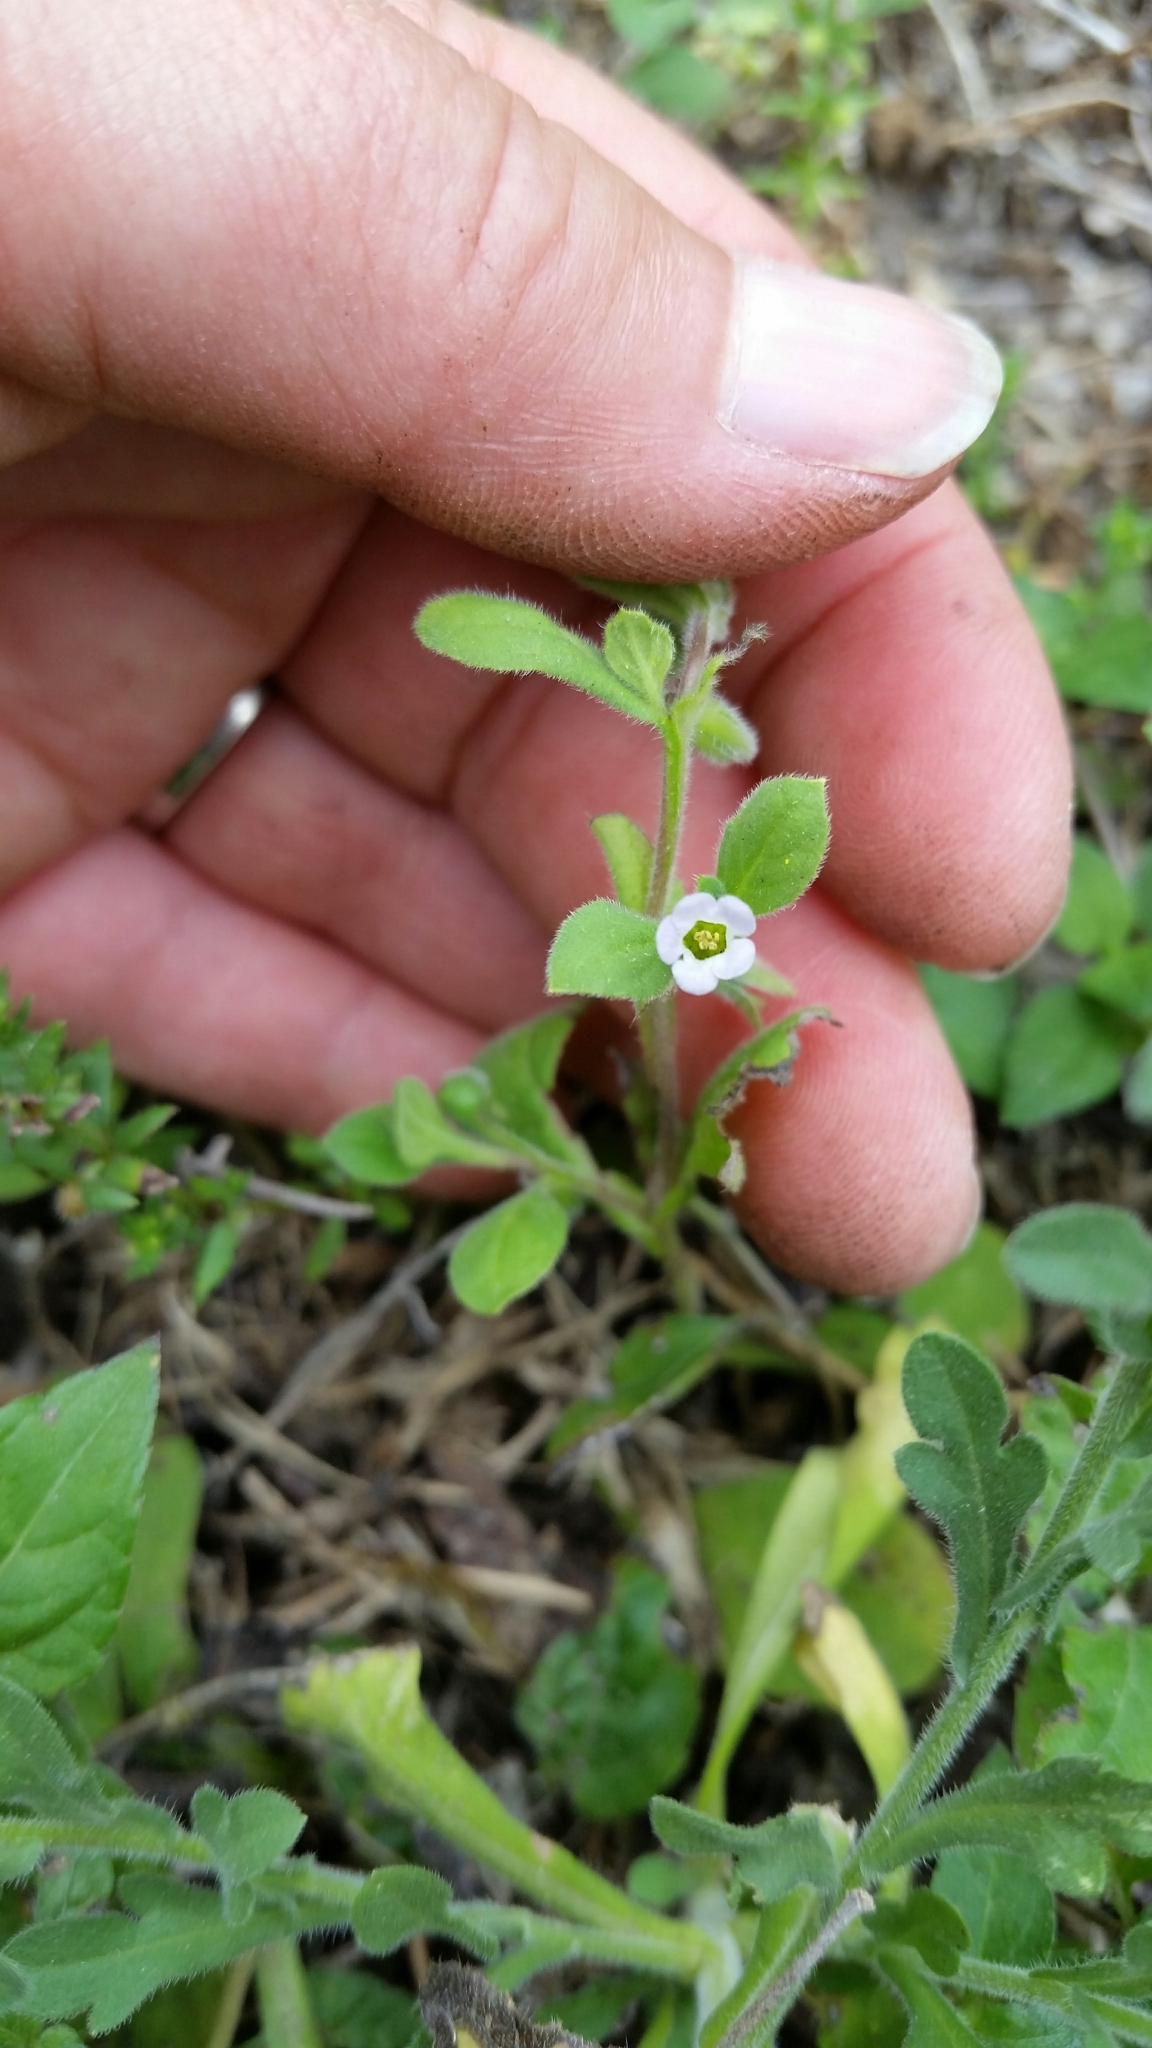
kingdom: Plantae
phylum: Tracheophyta
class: Magnoliopsida
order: Boraginales
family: Namaceae
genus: Nama
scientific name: Nama jamaicensis
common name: Jamaicanweed
